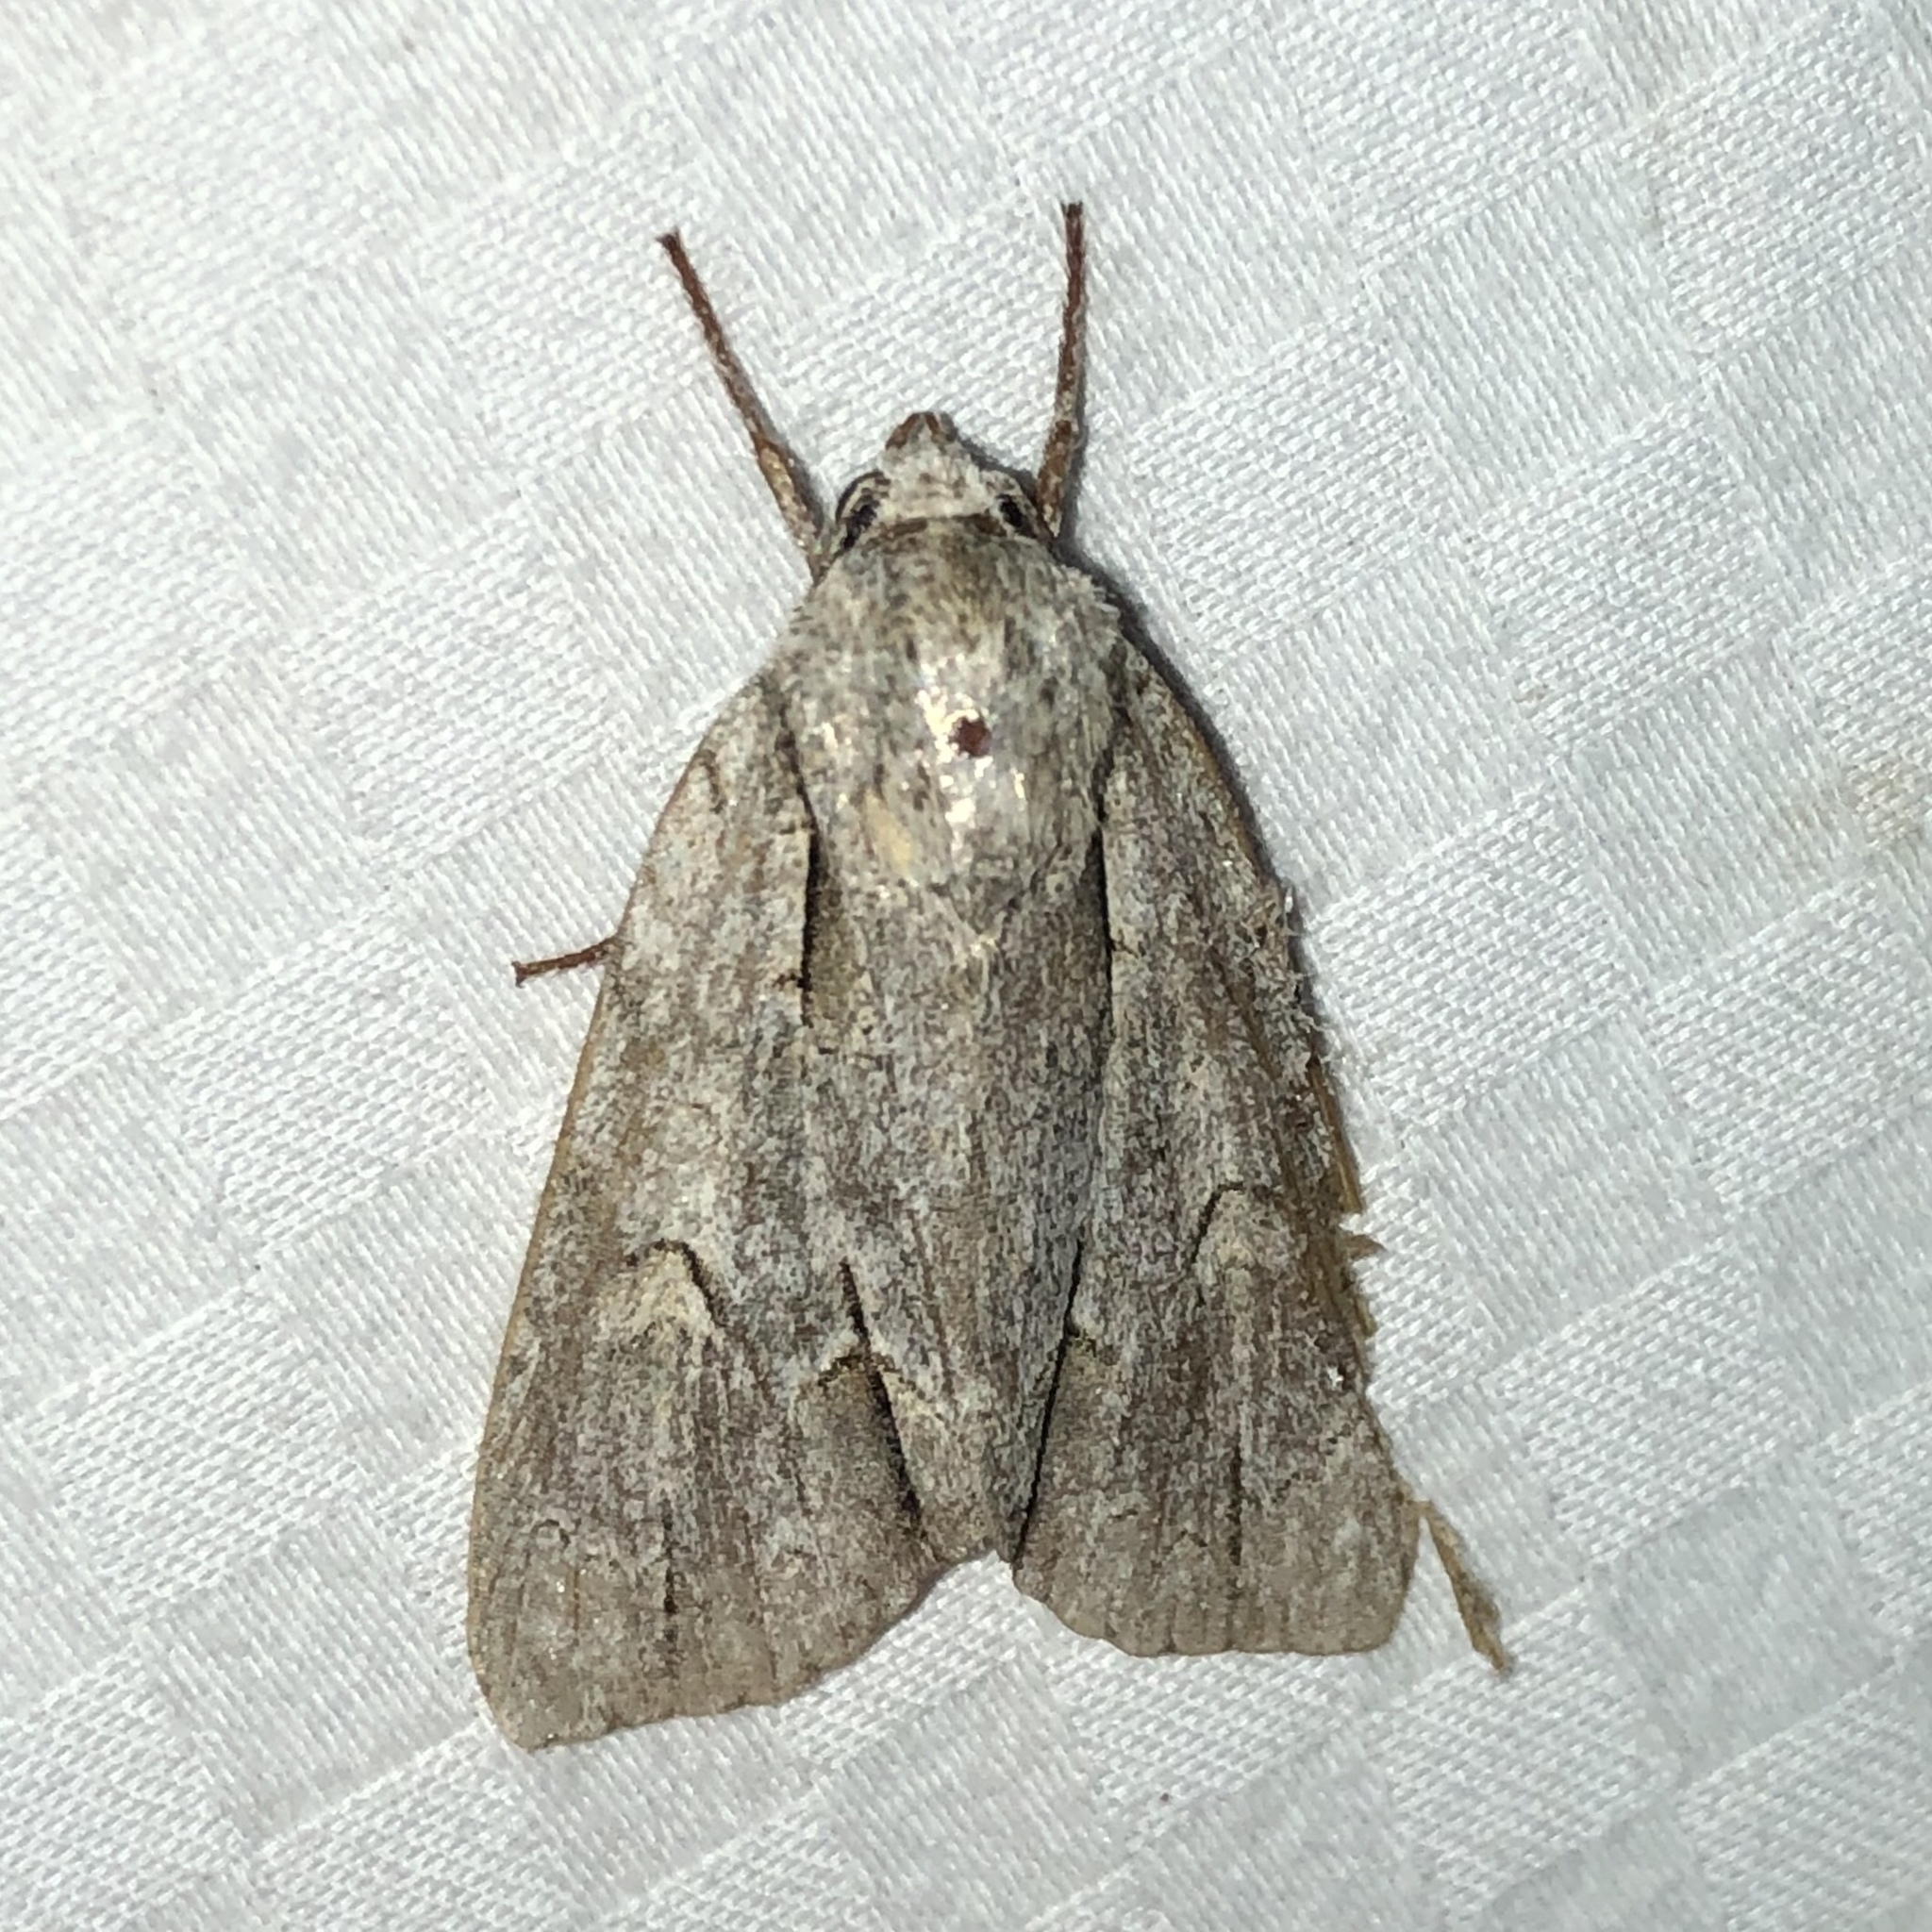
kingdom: Animalia
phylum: Arthropoda
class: Insecta
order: Lepidoptera
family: Noctuidae
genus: Acronicta
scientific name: Acronicta morula
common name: Ochre dagger
